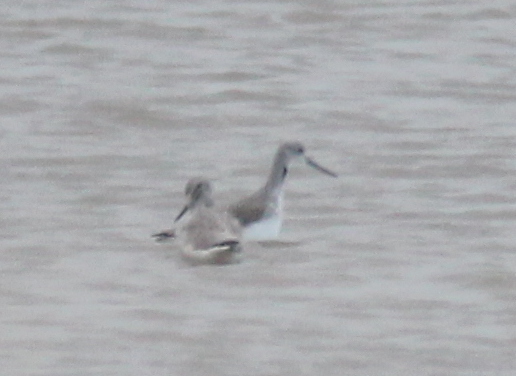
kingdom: Animalia
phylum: Chordata
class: Aves
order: Charadriiformes
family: Scolopacidae
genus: Tringa
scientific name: Tringa nebularia
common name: Common greenshank
